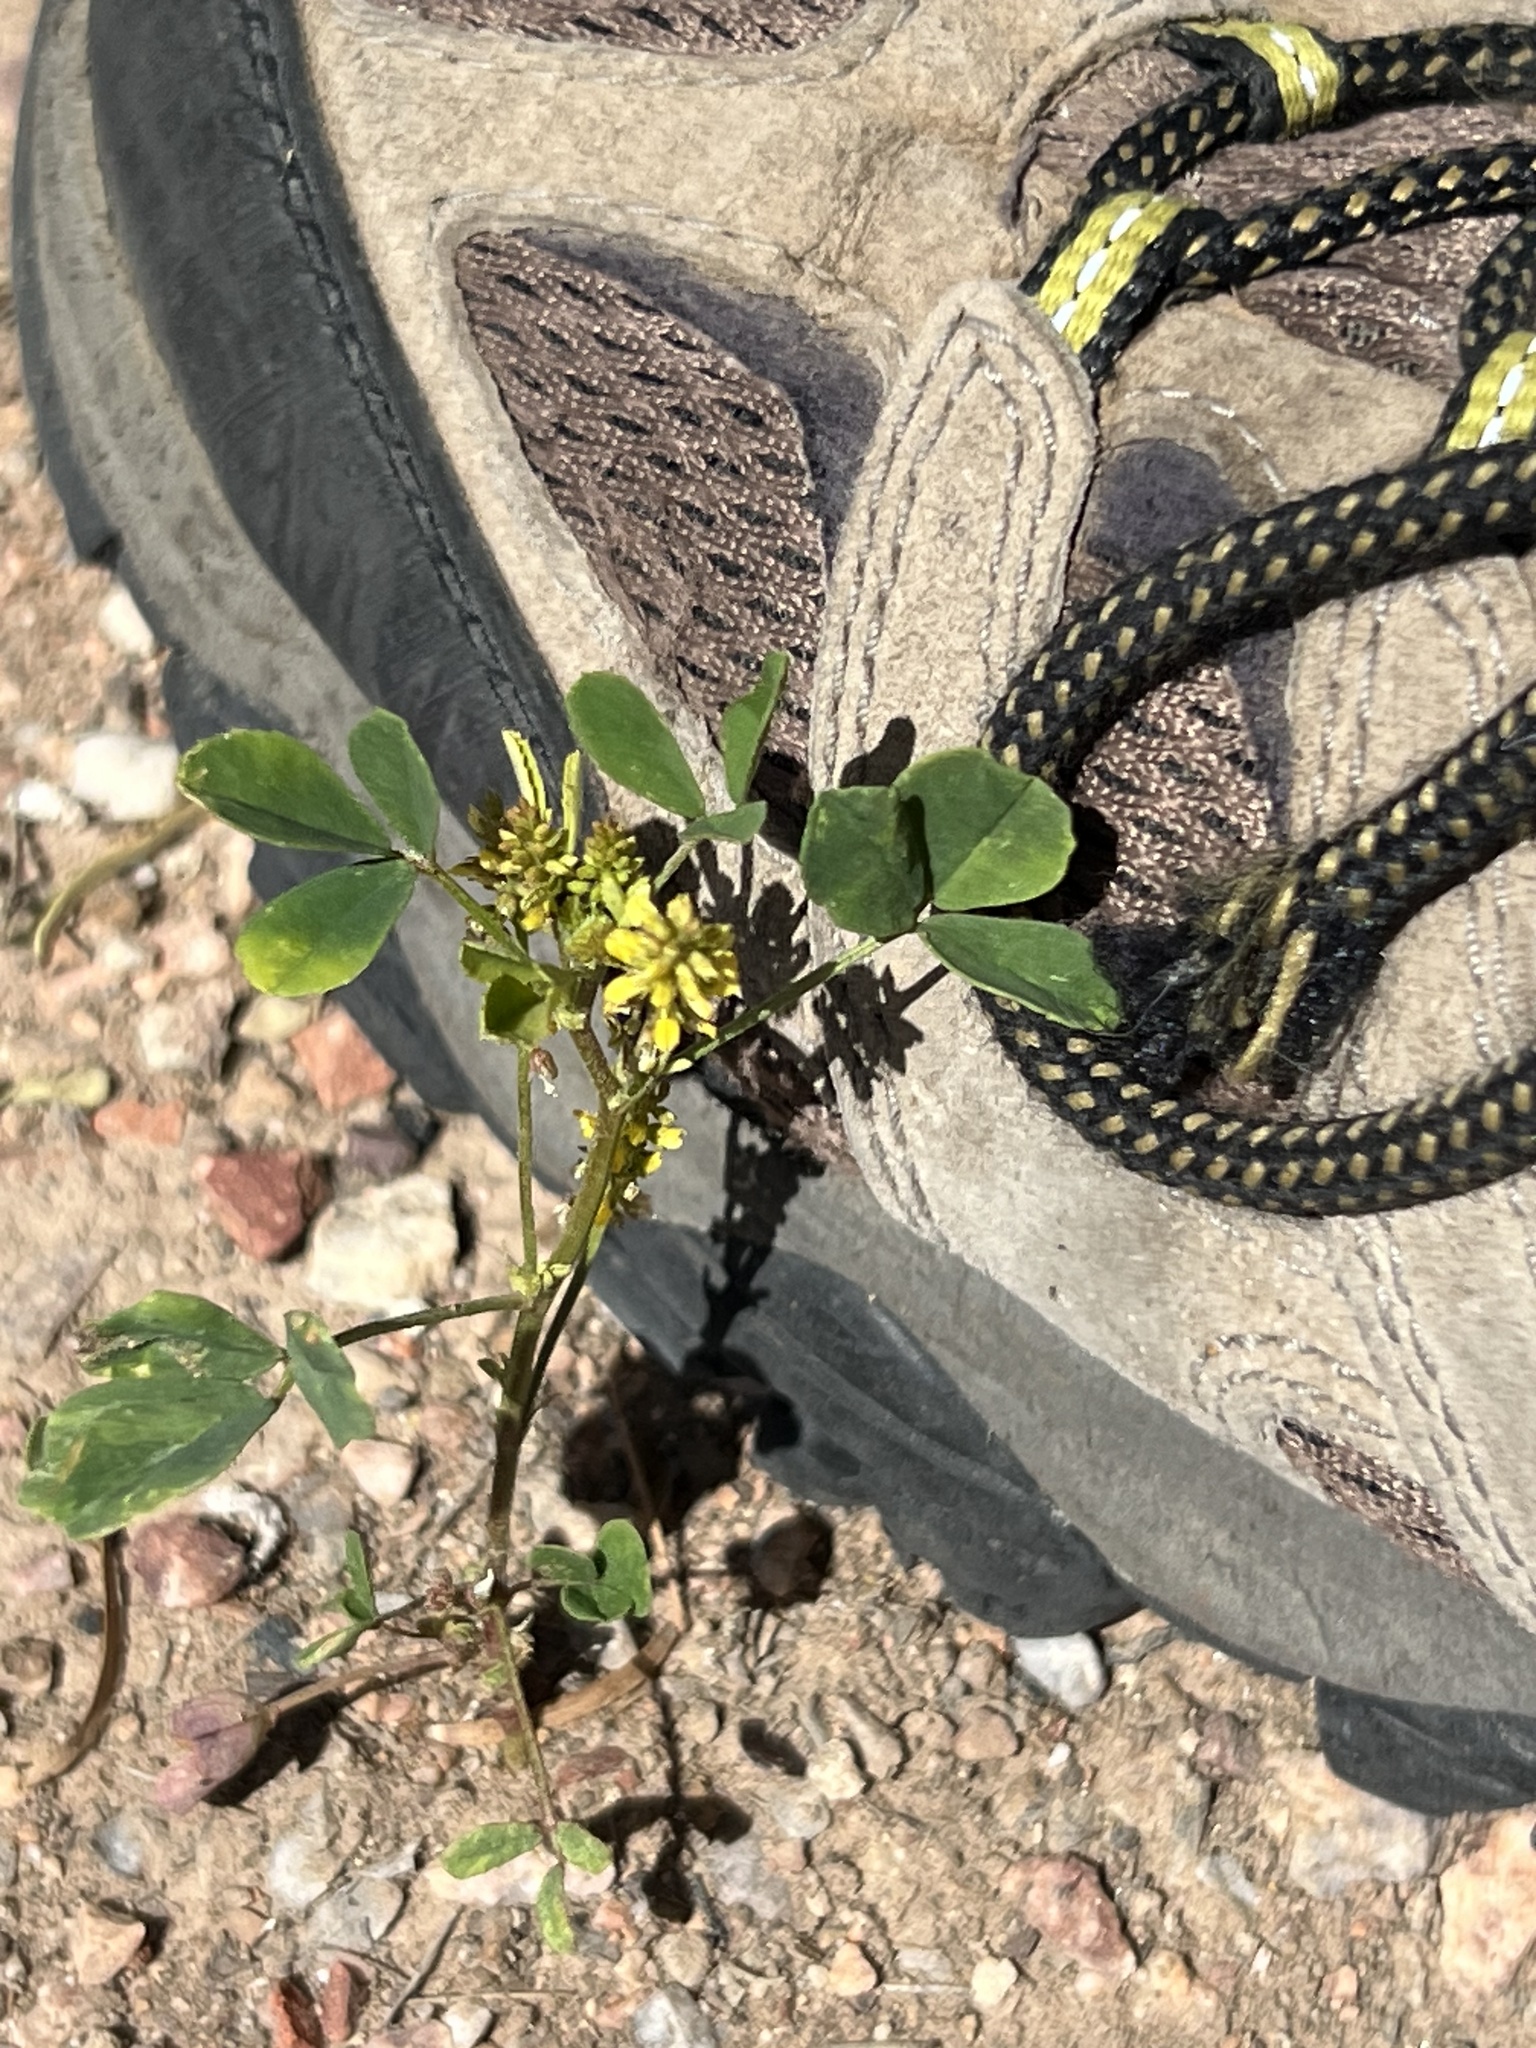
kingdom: Plantae
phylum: Tracheophyta
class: Magnoliopsida
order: Fabales
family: Fabaceae
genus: Melilotus
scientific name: Melilotus indicus
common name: Small melilot
